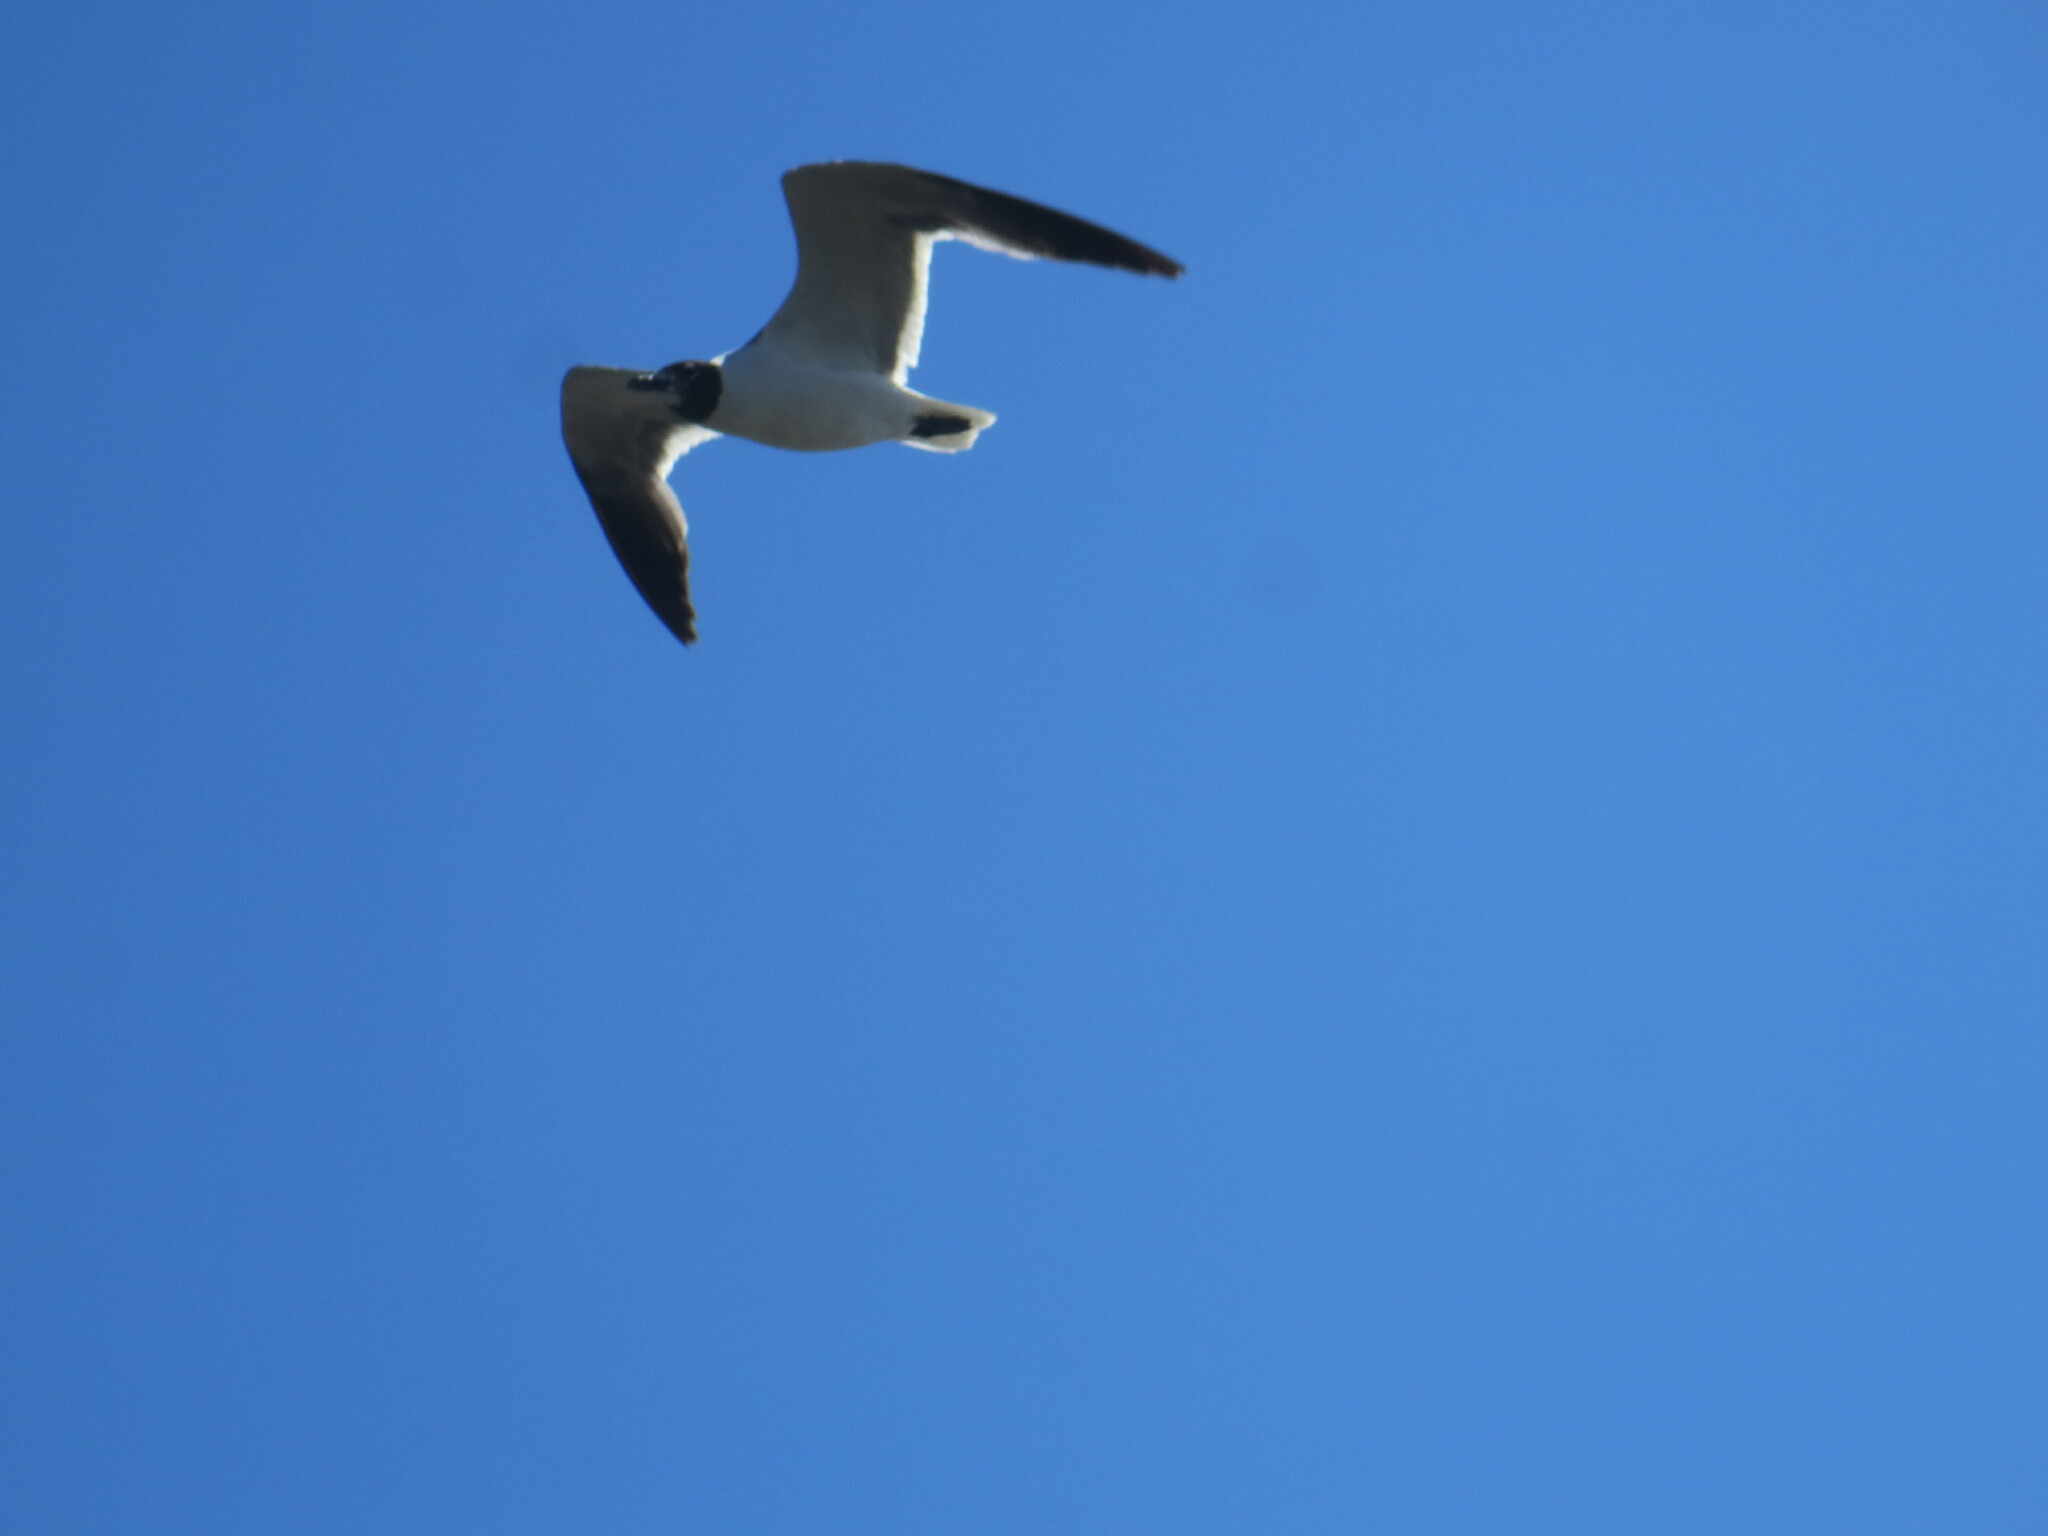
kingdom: Animalia
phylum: Chordata
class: Aves
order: Charadriiformes
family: Laridae
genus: Leucophaeus
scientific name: Leucophaeus atricilla
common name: Laughing gull
